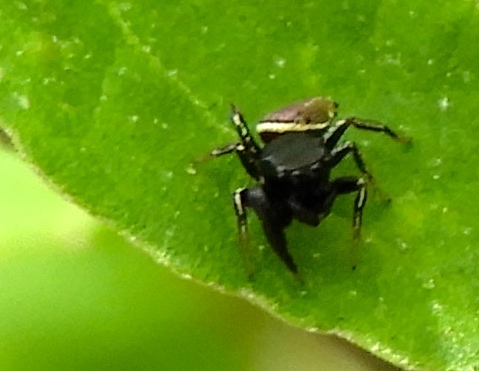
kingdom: Animalia
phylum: Arthropoda
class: Arachnida
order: Araneae
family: Salticidae
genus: Sassacus
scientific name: Sassacus
